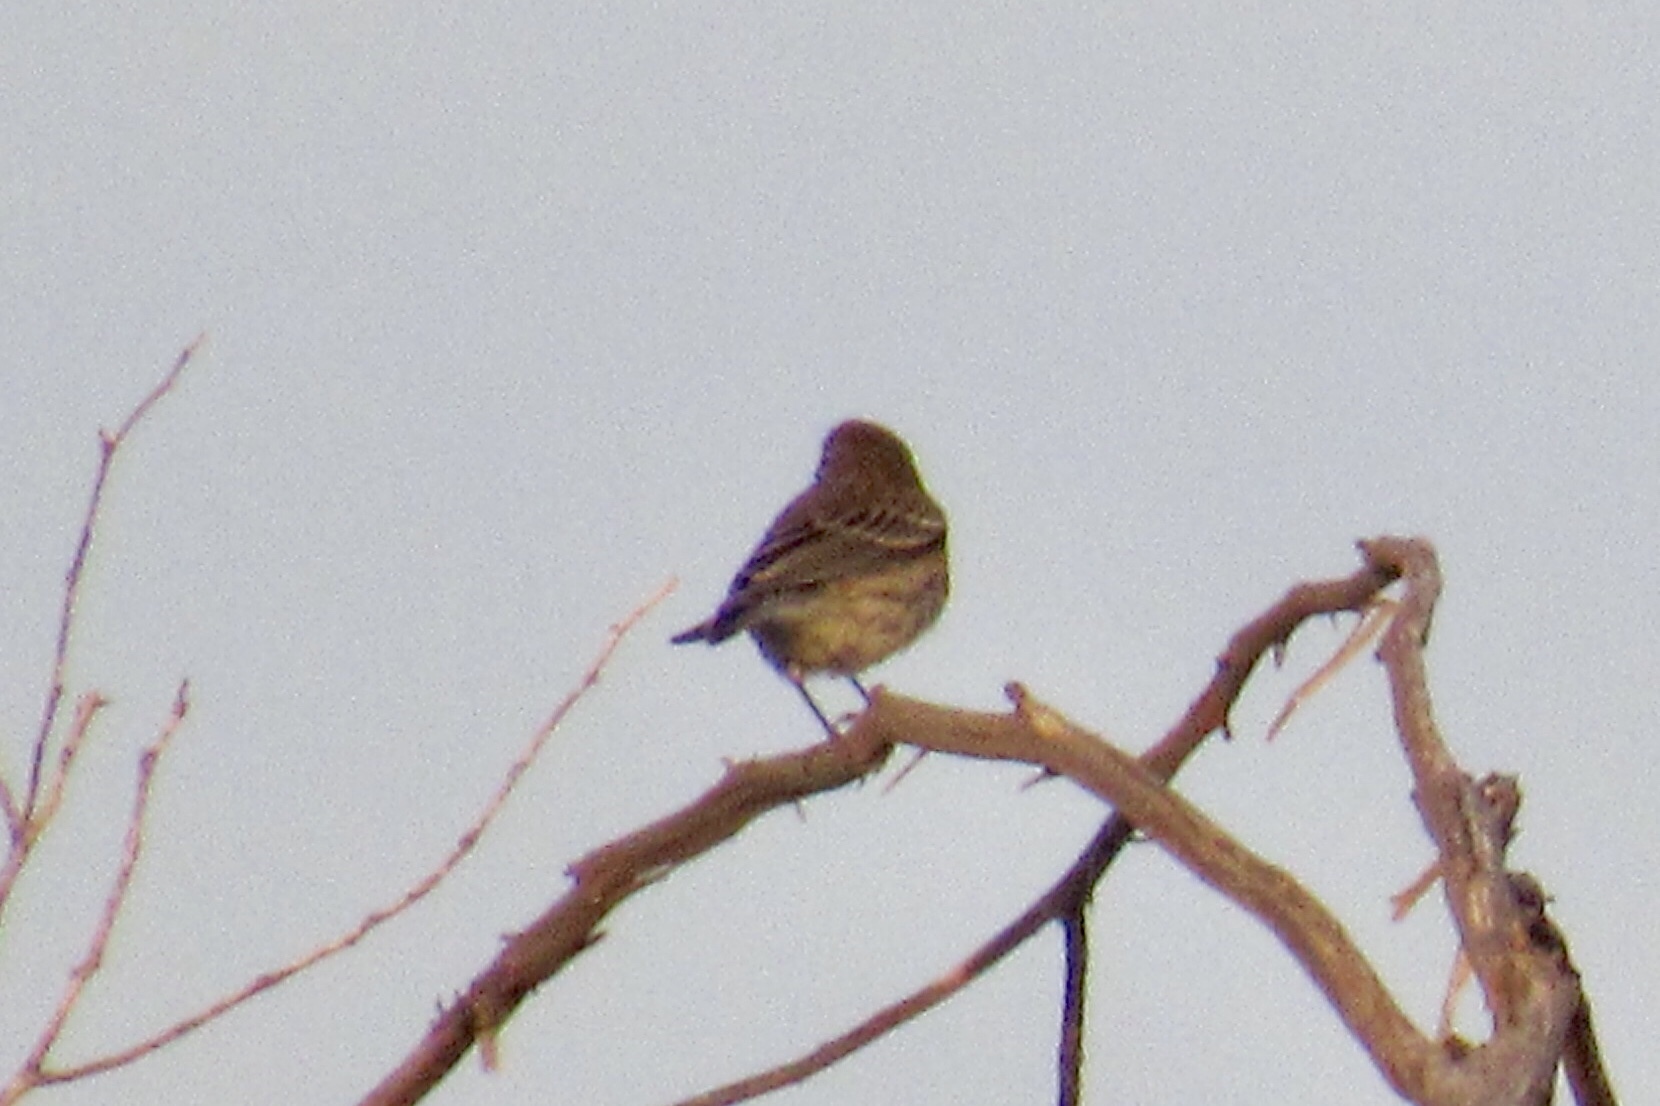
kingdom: Animalia
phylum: Chordata
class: Aves
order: Passeriformes
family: Parulidae
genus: Setophaga
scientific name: Setophaga coronata
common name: Myrtle warbler
